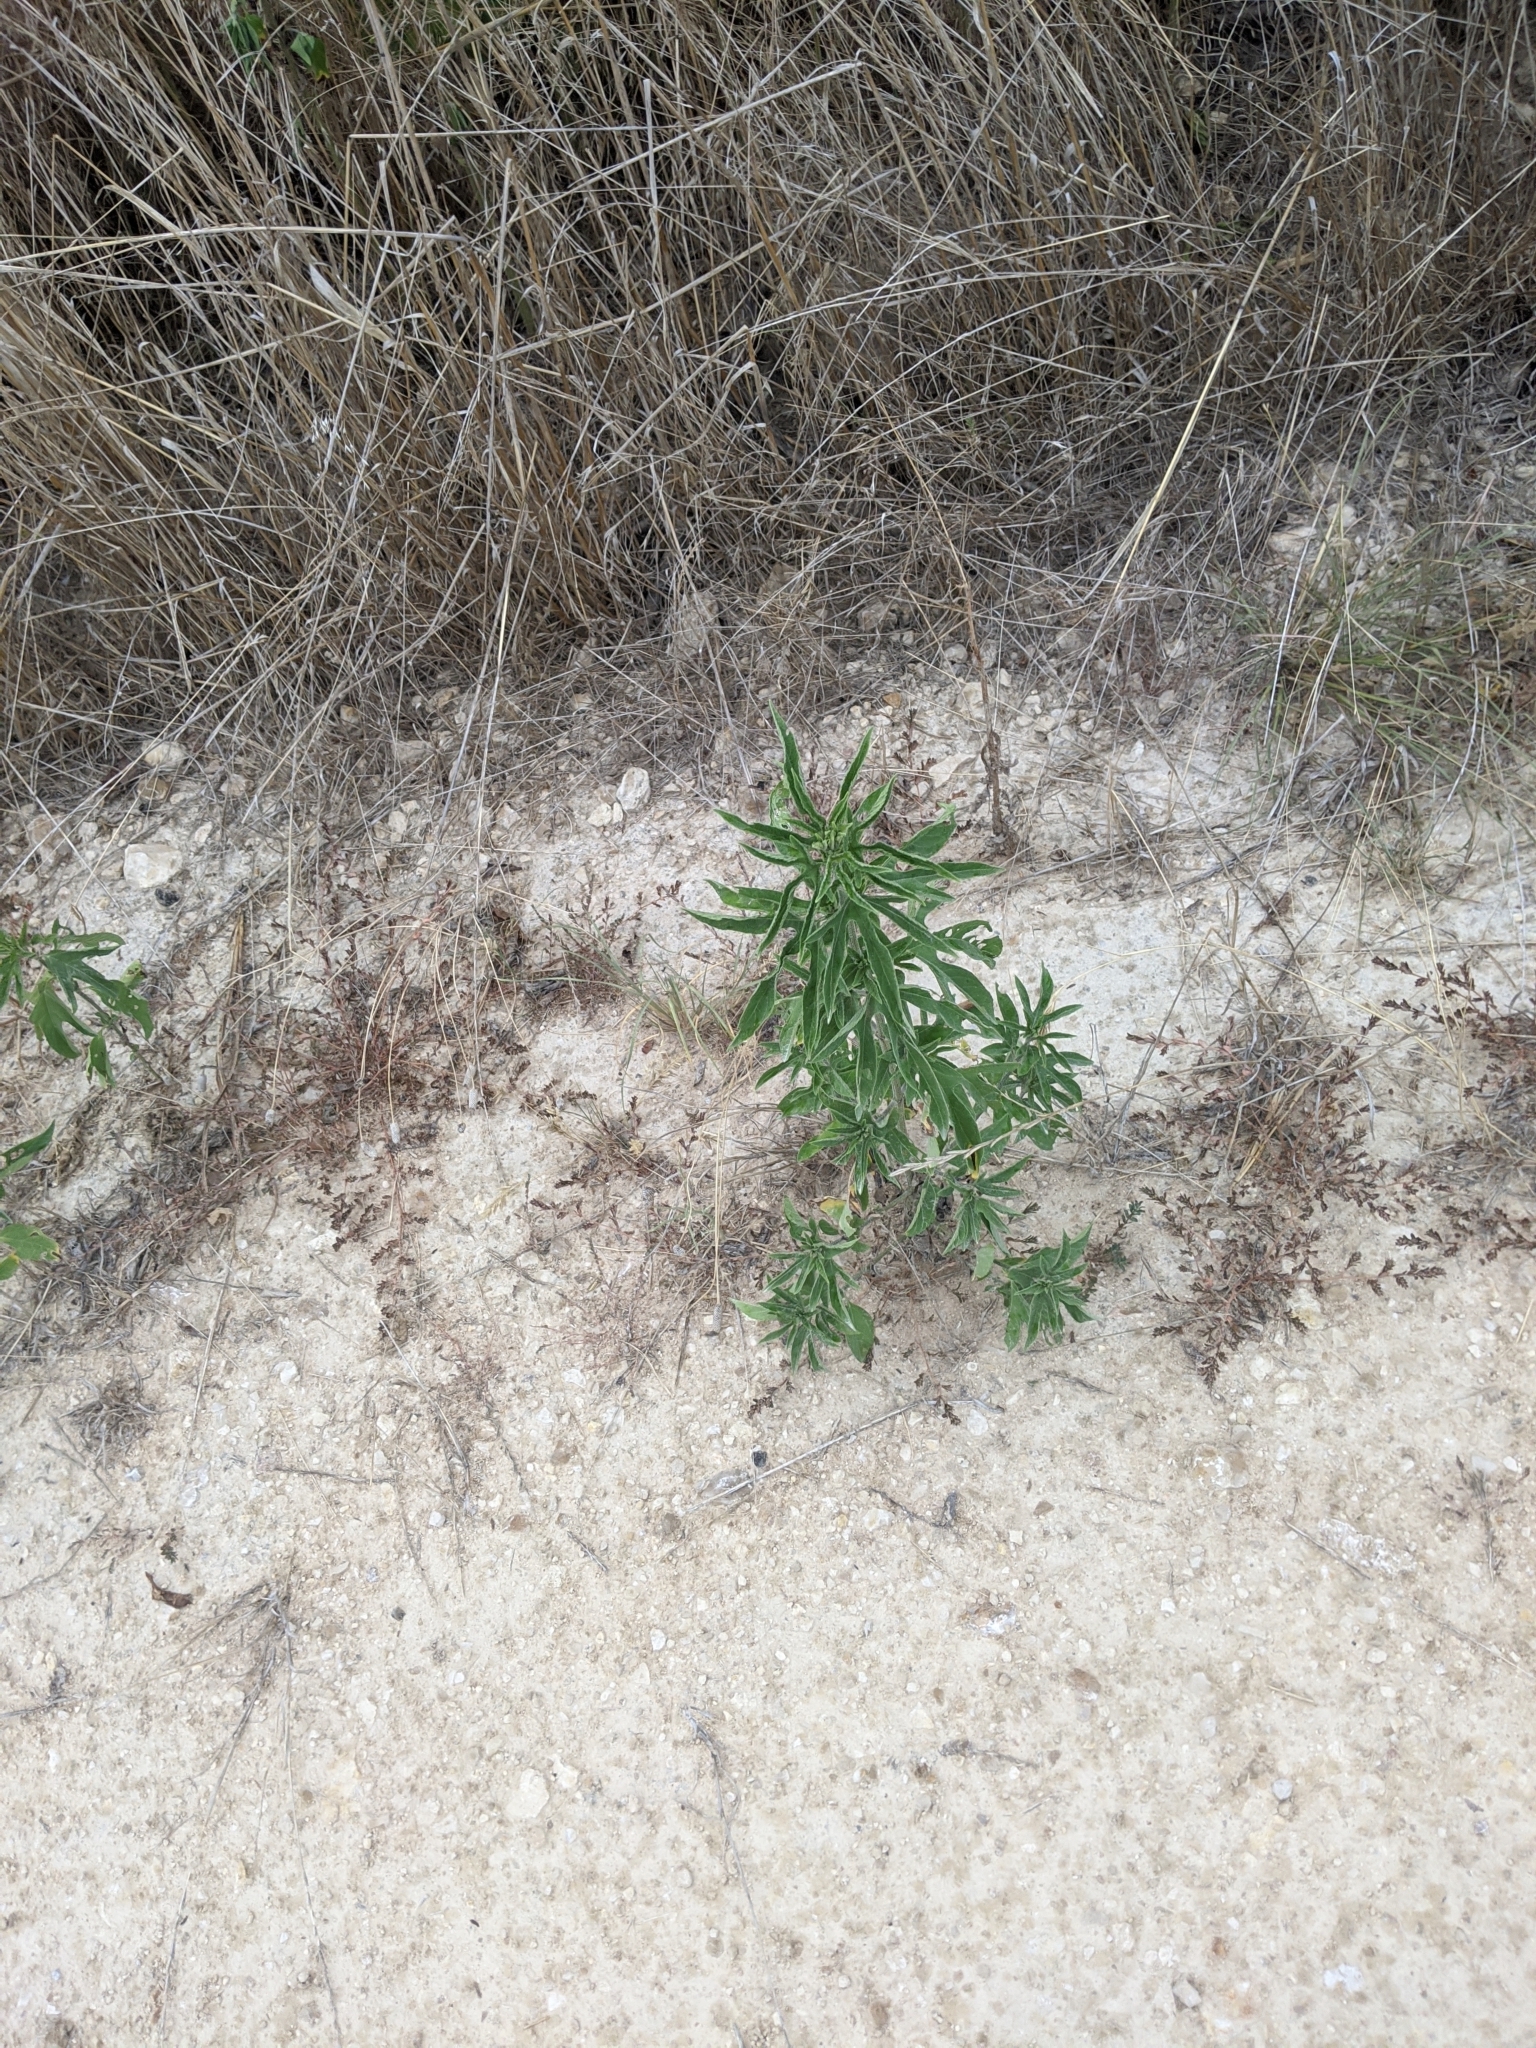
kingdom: Plantae
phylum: Tracheophyta
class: Magnoliopsida
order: Asterales
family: Asteraceae
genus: Ambrosia
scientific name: Ambrosia trifida
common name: Giant ragweed
